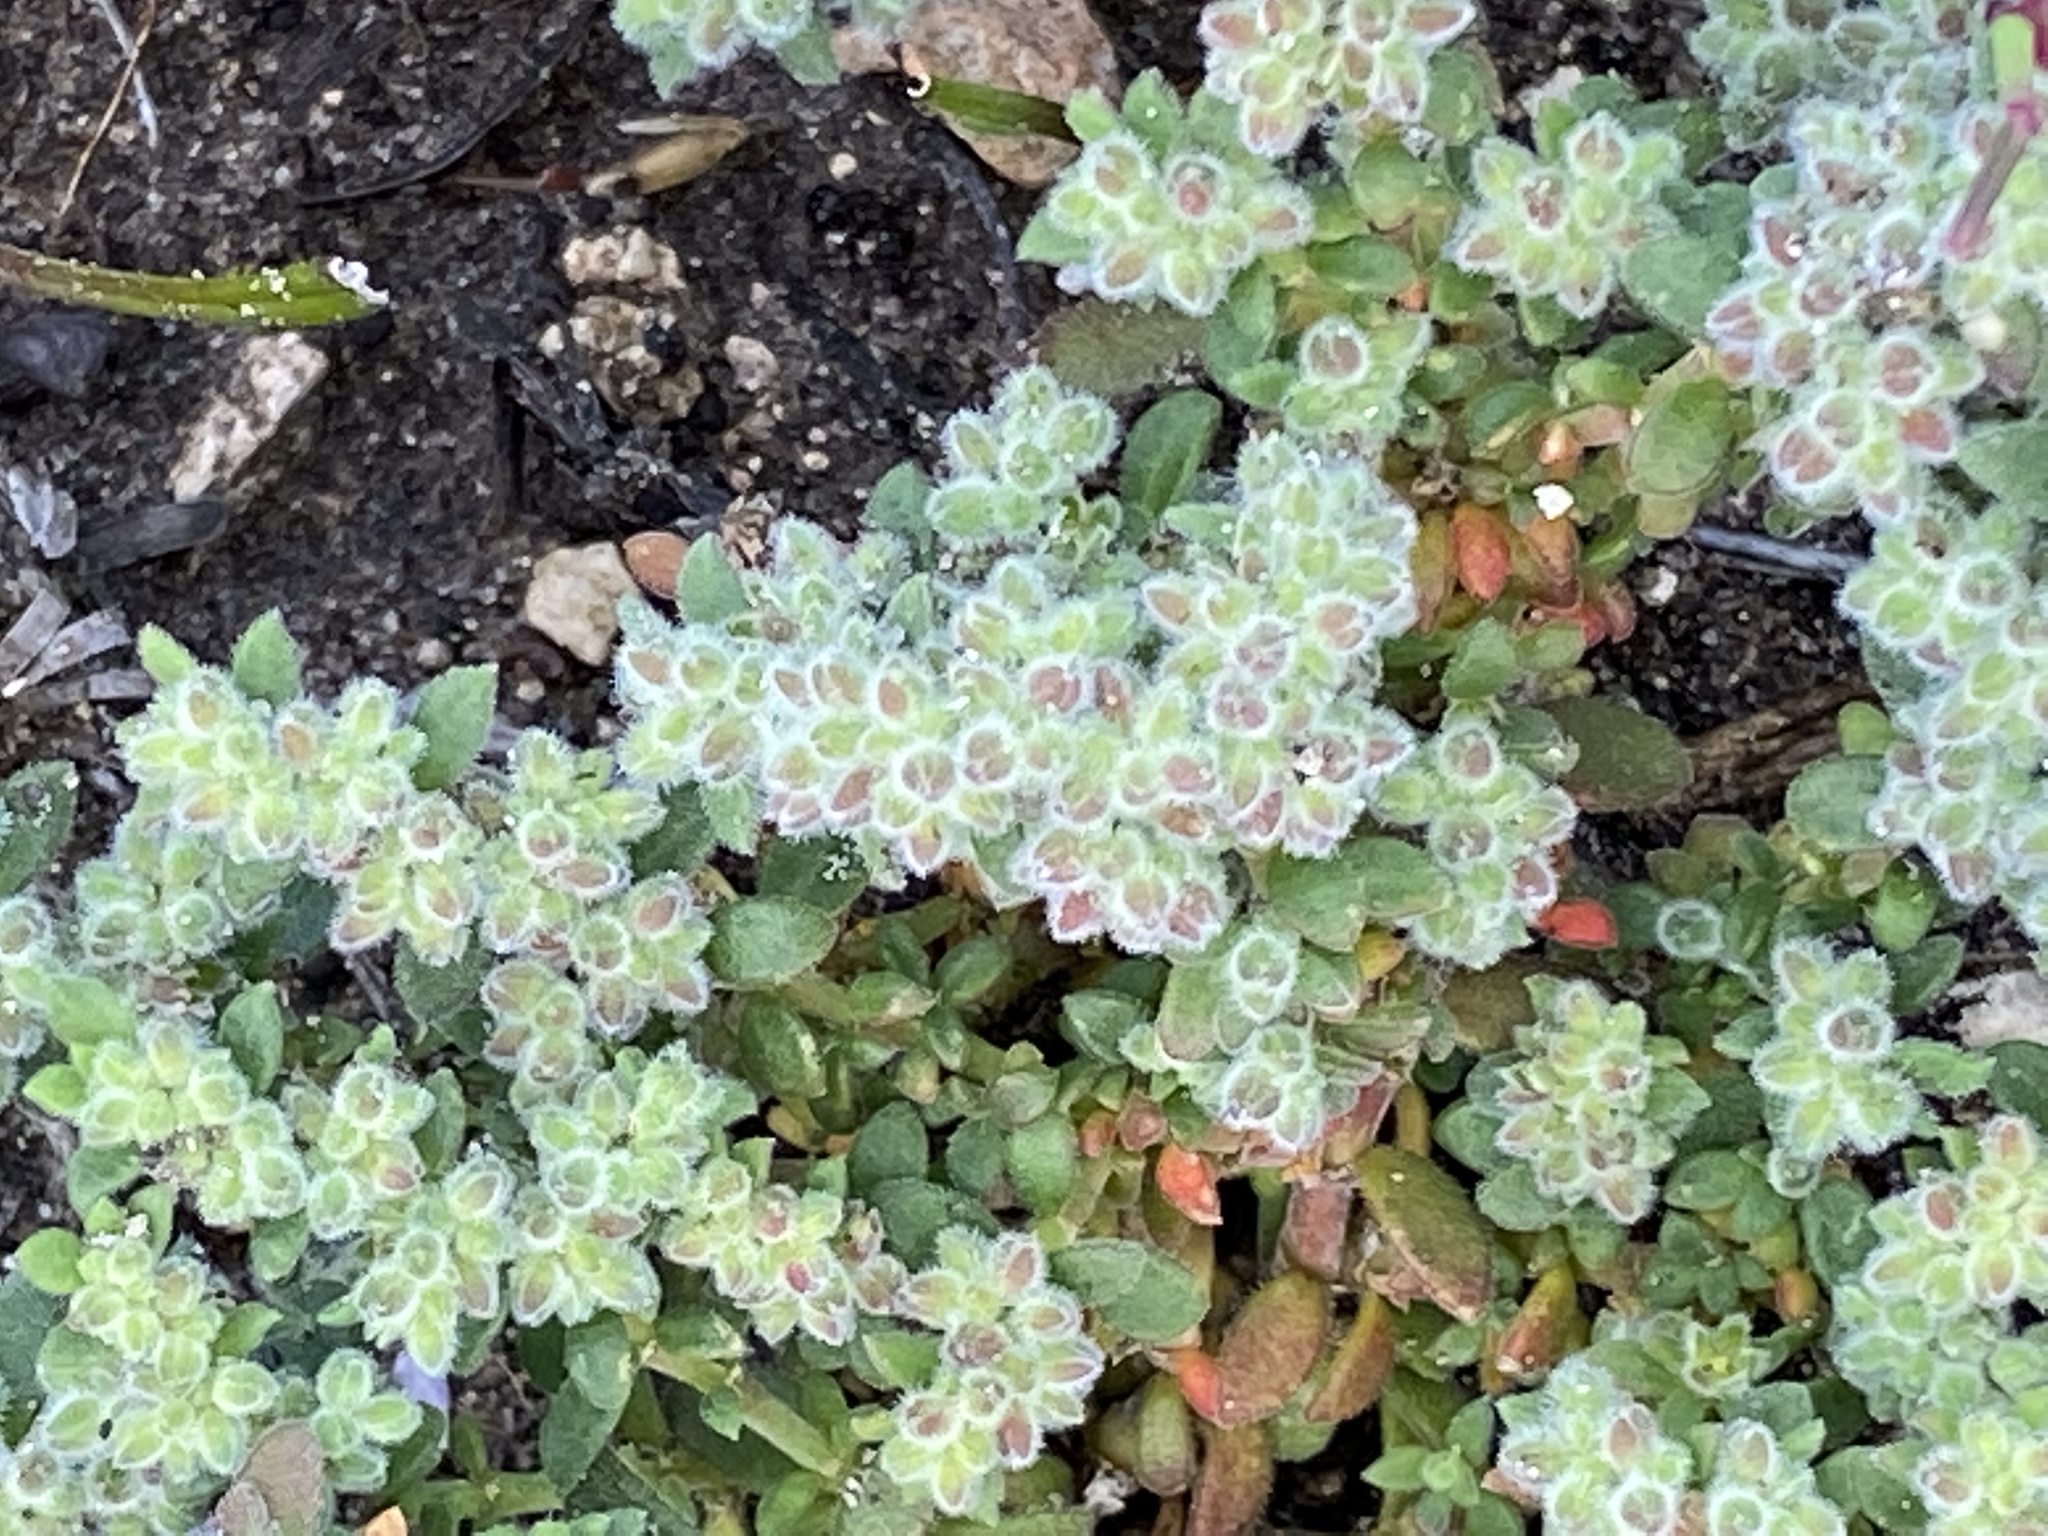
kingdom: Plantae
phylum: Tracheophyta
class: Magnoliopsida
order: Caryophyllales
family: Aizoaceae
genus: Aizoon
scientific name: Aizoon pubescens
